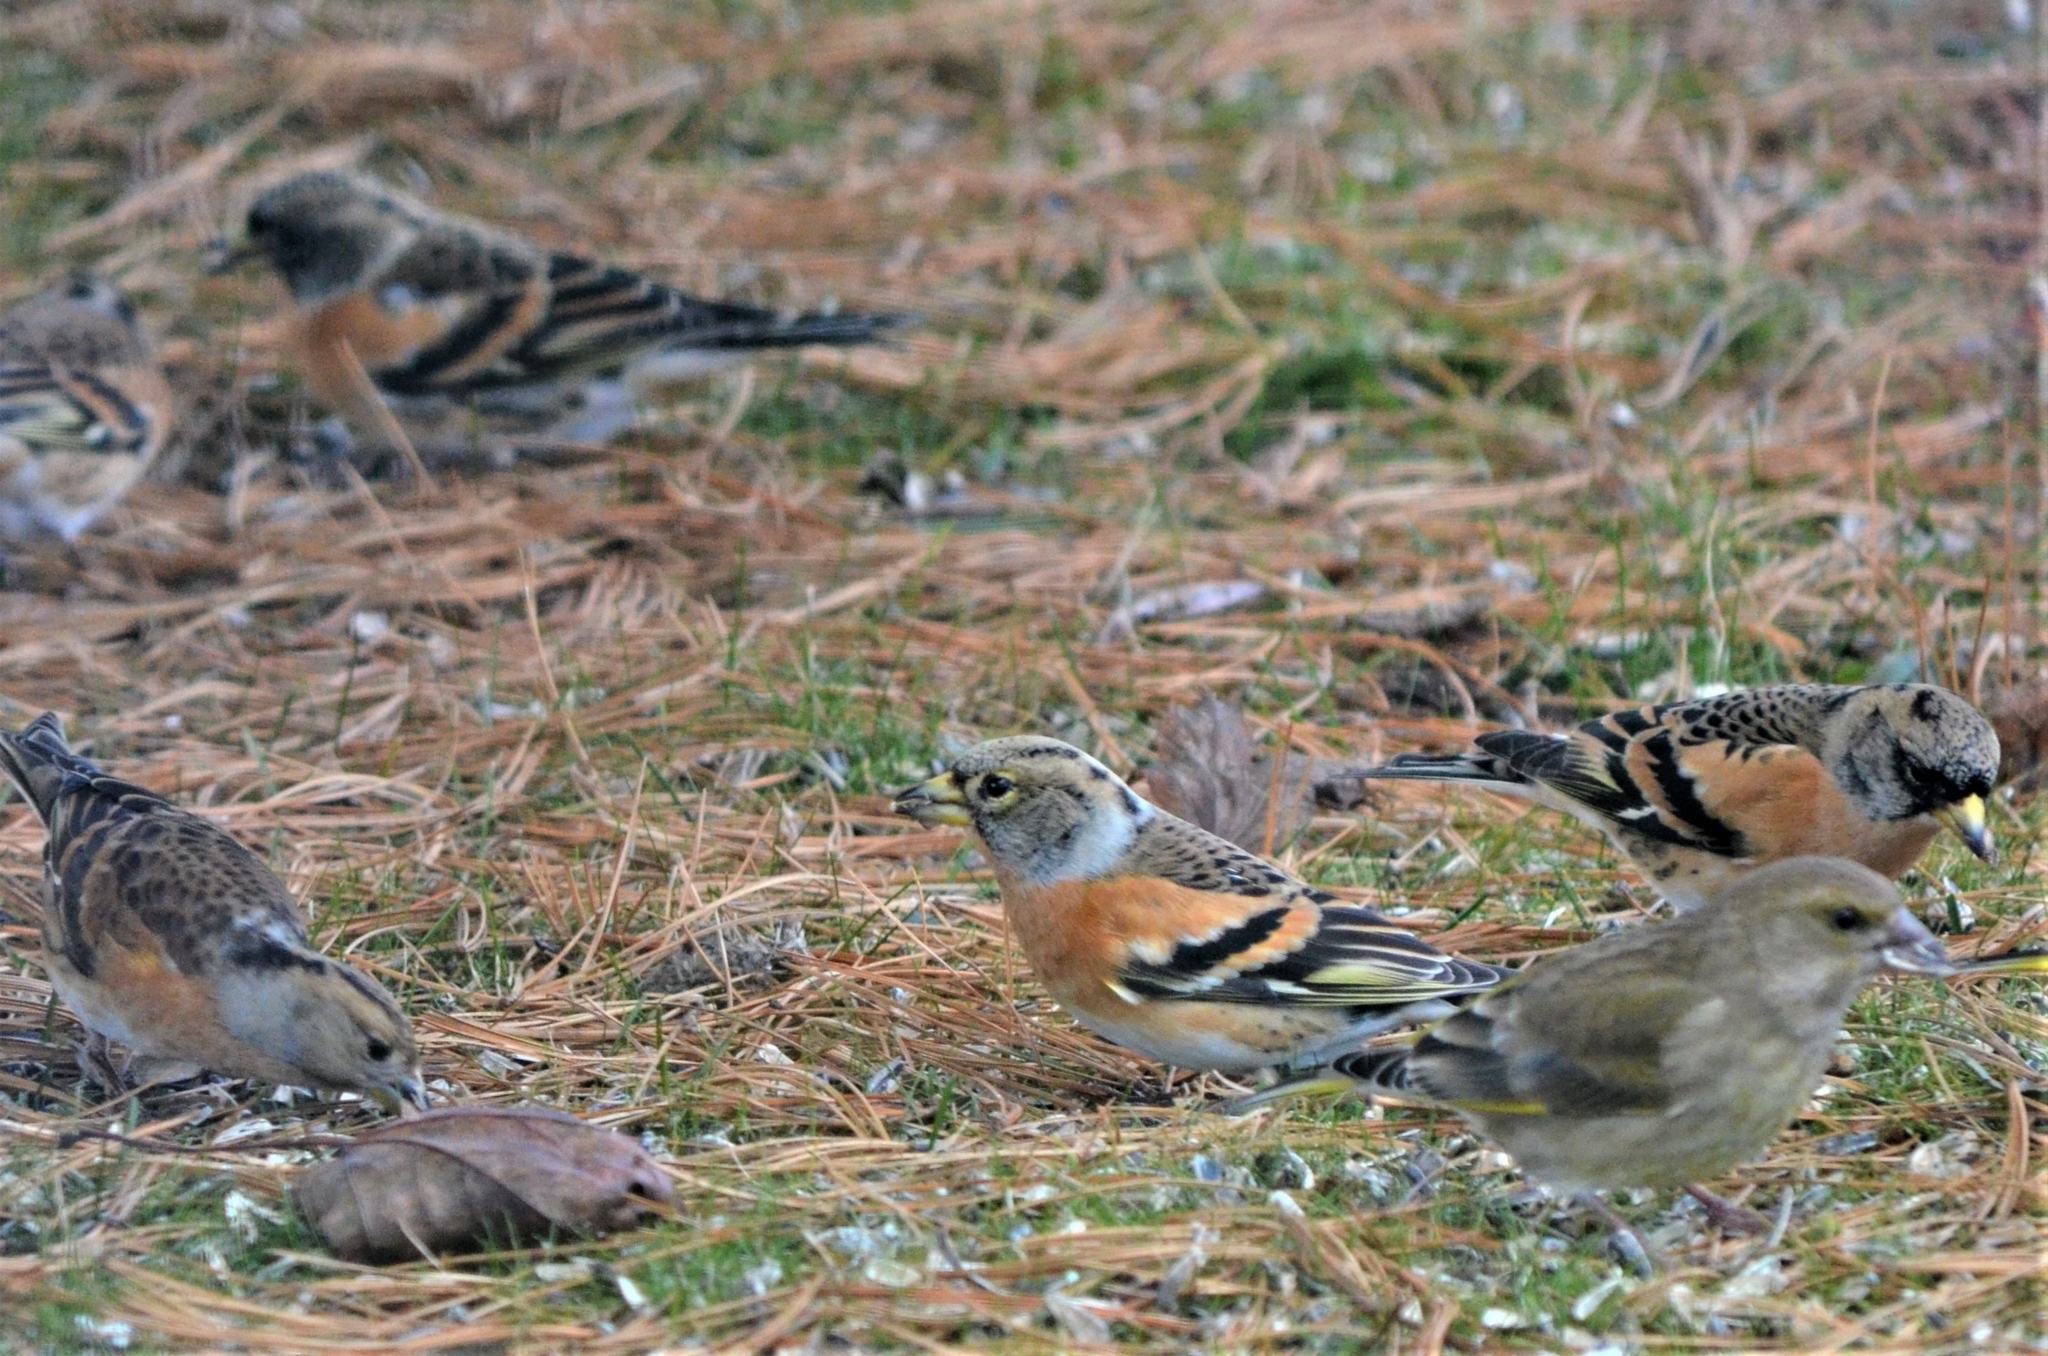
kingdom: Animalia
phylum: Chordata
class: Aves
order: Passeriformes
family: Fringillidae
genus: Fringilla
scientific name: Fringilla montifringilla
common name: Brambling
